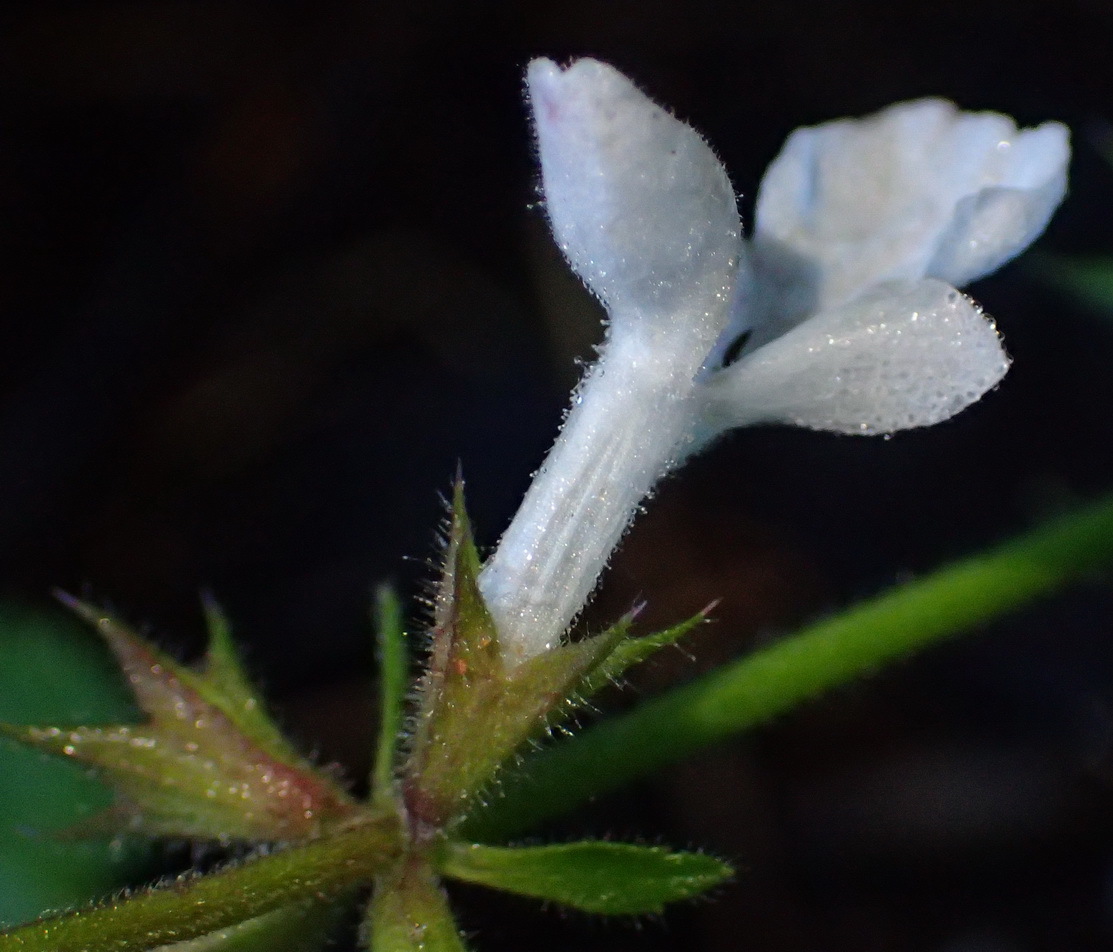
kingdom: Plantae
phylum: Tracheophyta
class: Magnoliopsida
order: Lamiales
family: Lamiaceae
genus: Stachys
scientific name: Stachys aethiopica
